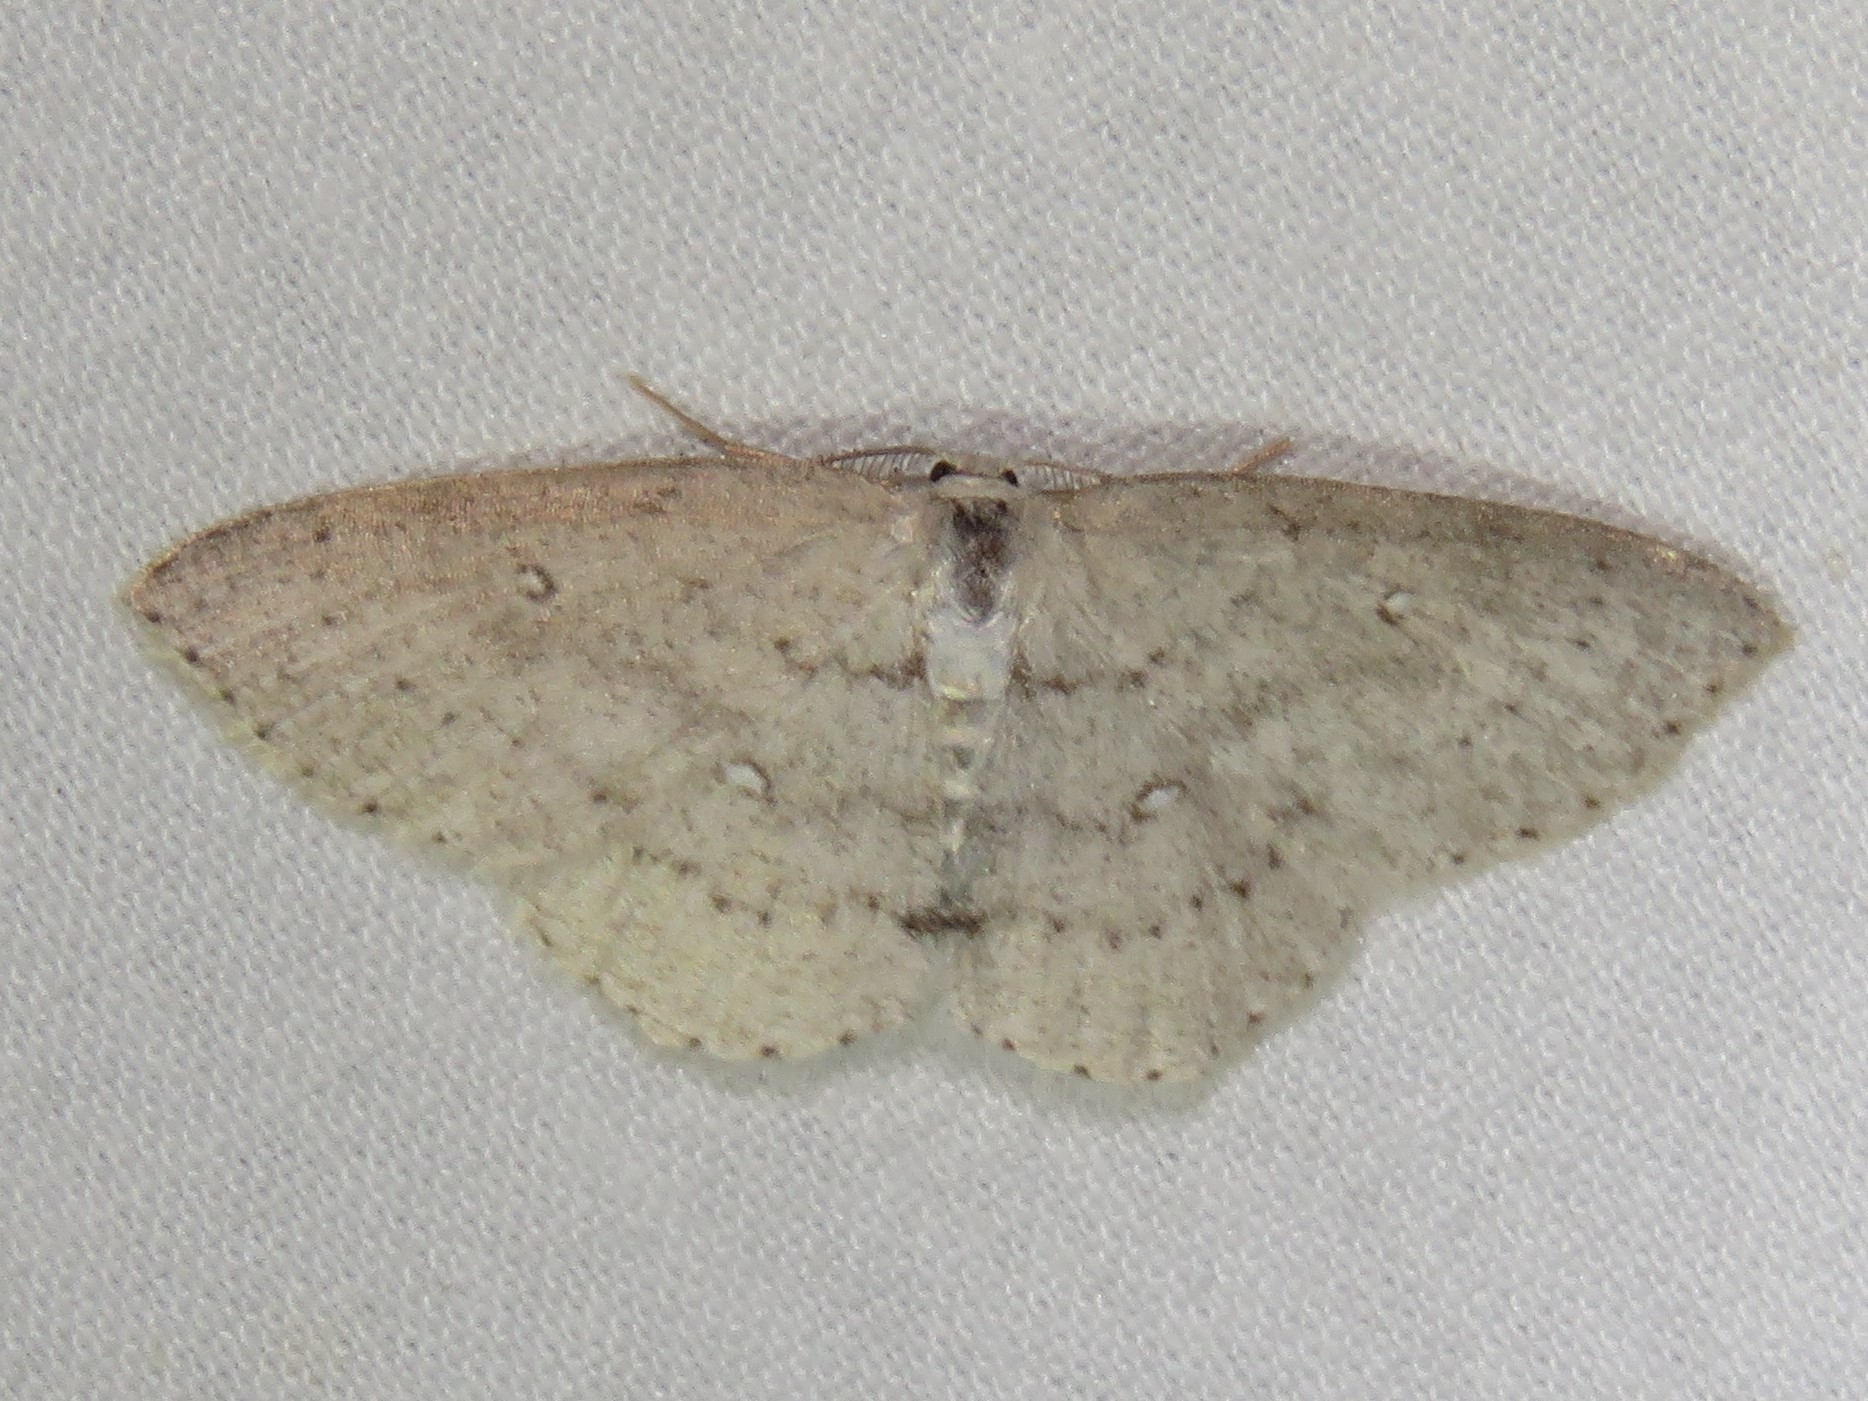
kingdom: Animalia
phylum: Arthropoda
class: Insecta
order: Lepidoptera
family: Geometridae
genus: Cyclophora
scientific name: Cyclophora pendulinaria
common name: Sweet fern geometer
